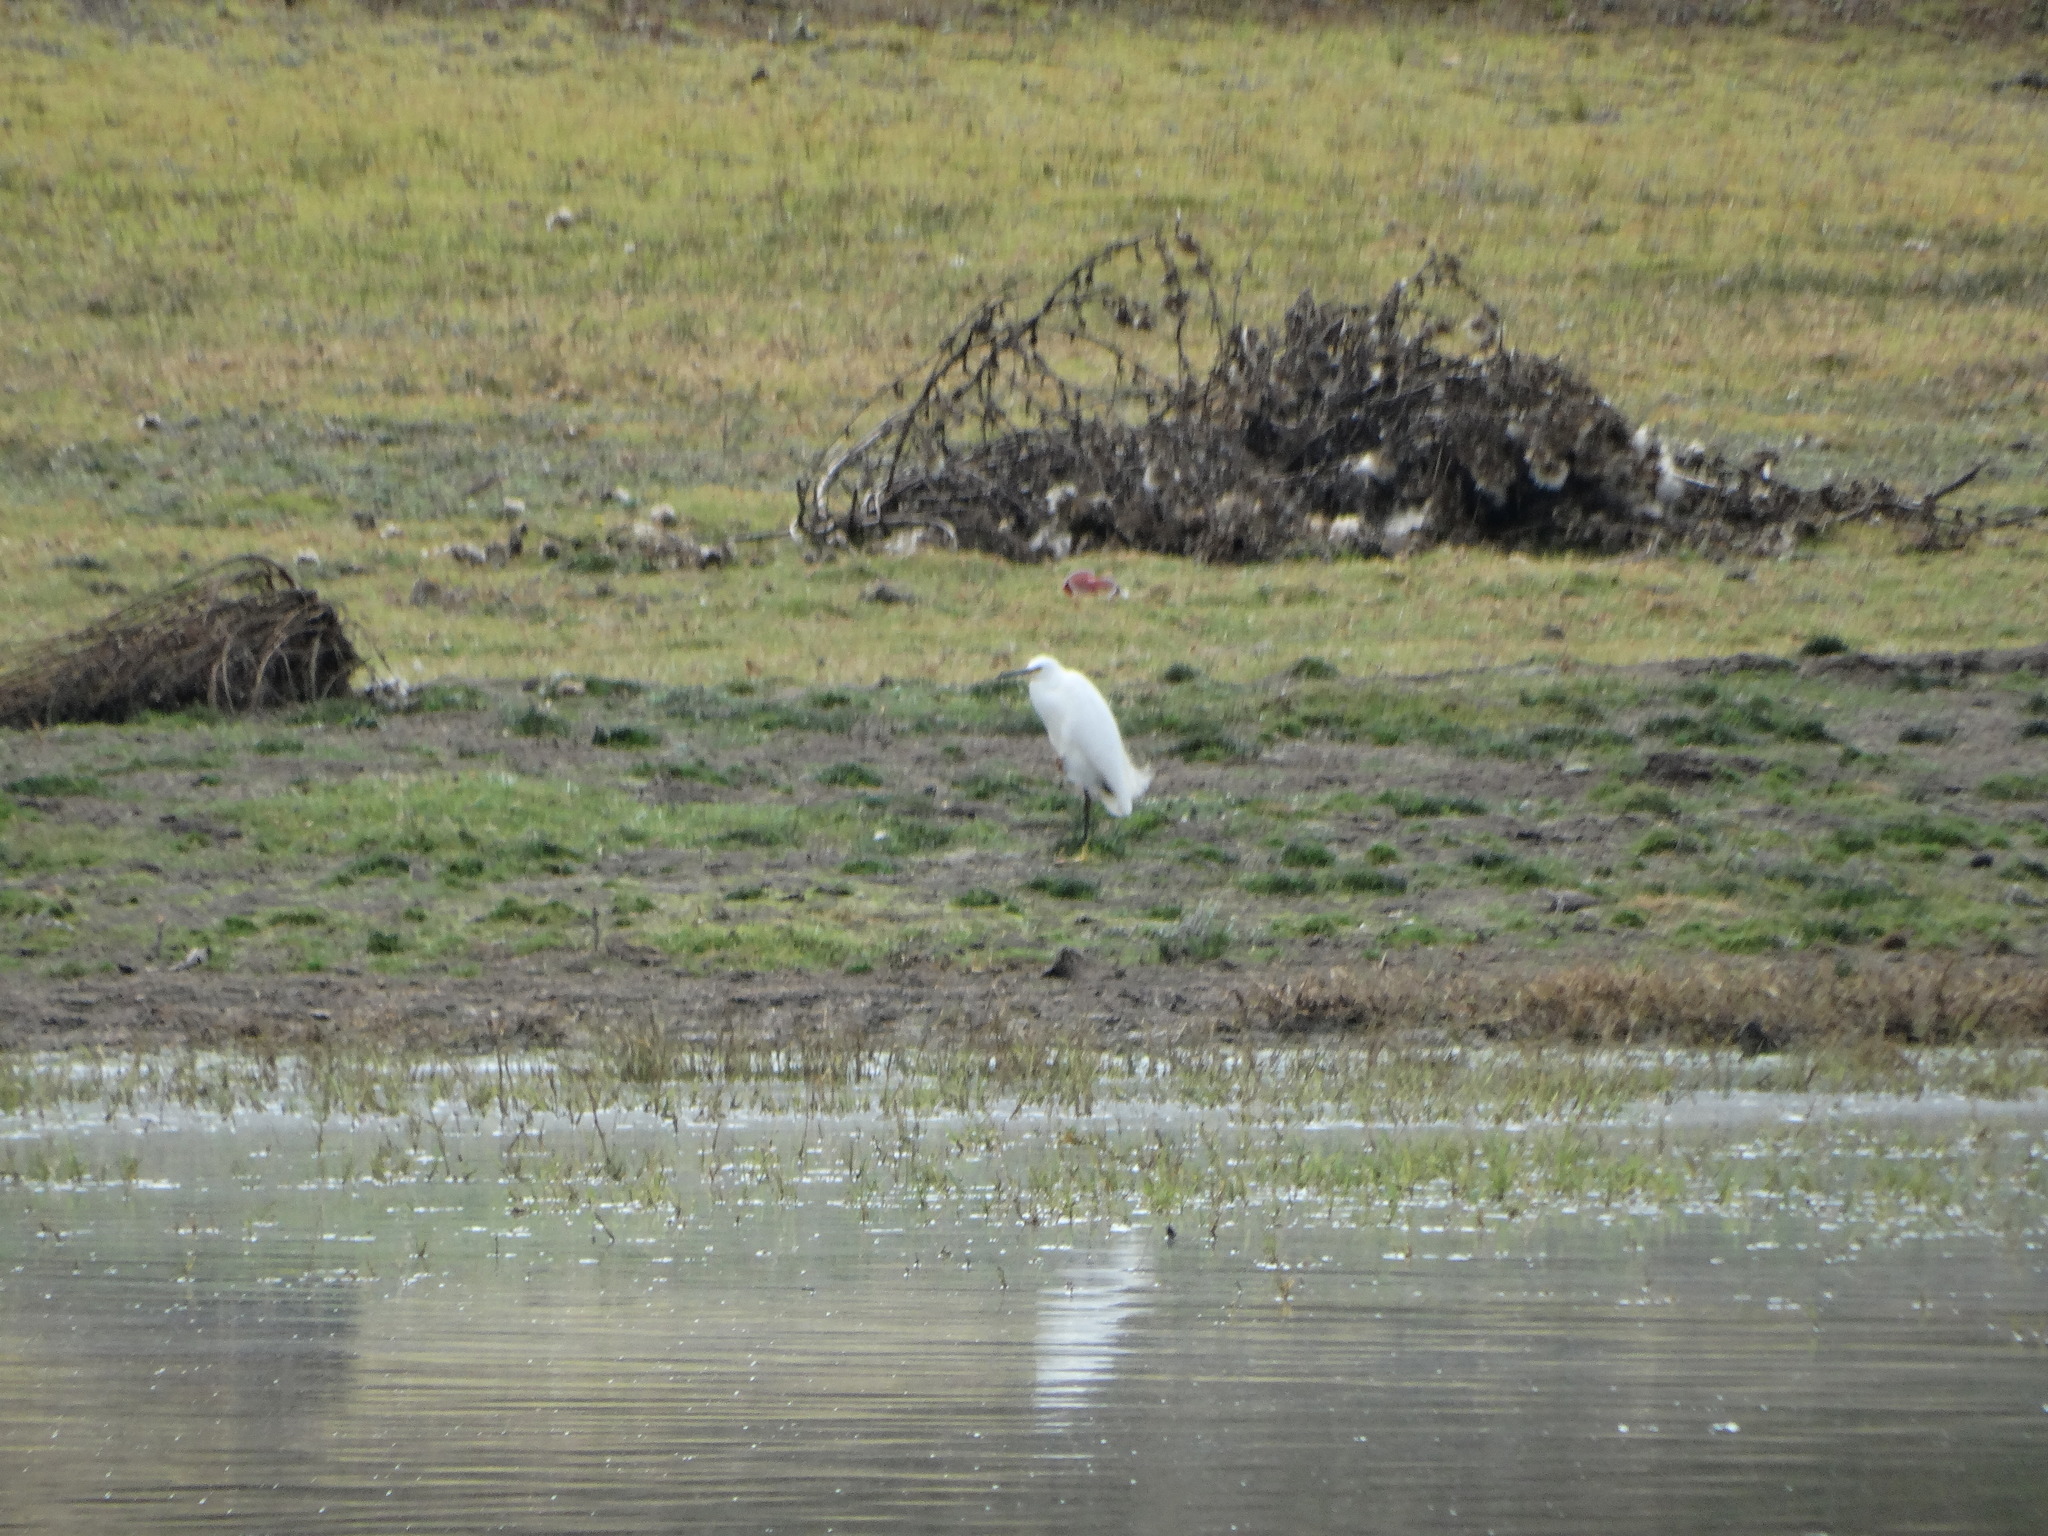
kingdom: Animalia
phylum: Chordata
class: Aves
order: Pelecaniformes
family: Ardeidae
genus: Egretta
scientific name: Egretta thula
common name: Snowy egret
